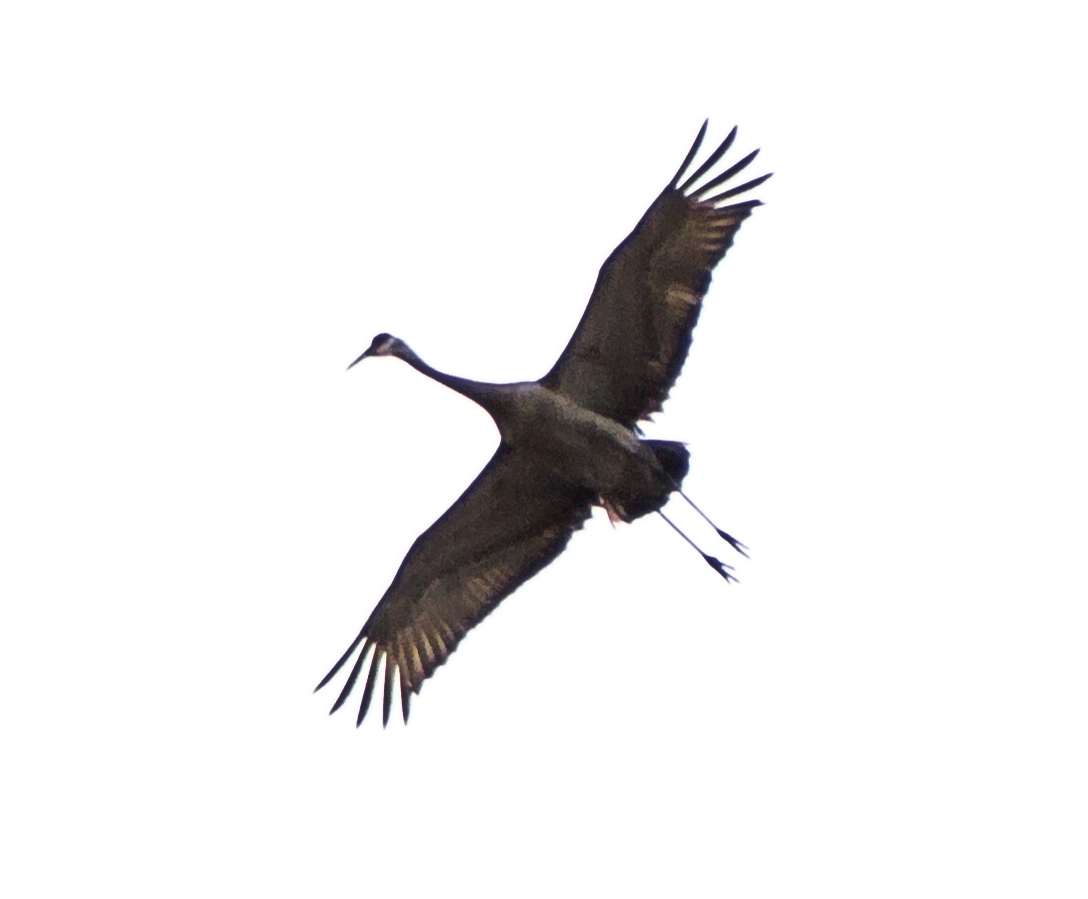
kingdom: Animalia
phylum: Chordata
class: Aves
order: Gruiformes
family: Gruidae
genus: Grus
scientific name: Grus canadensis
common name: Sandhill crane
